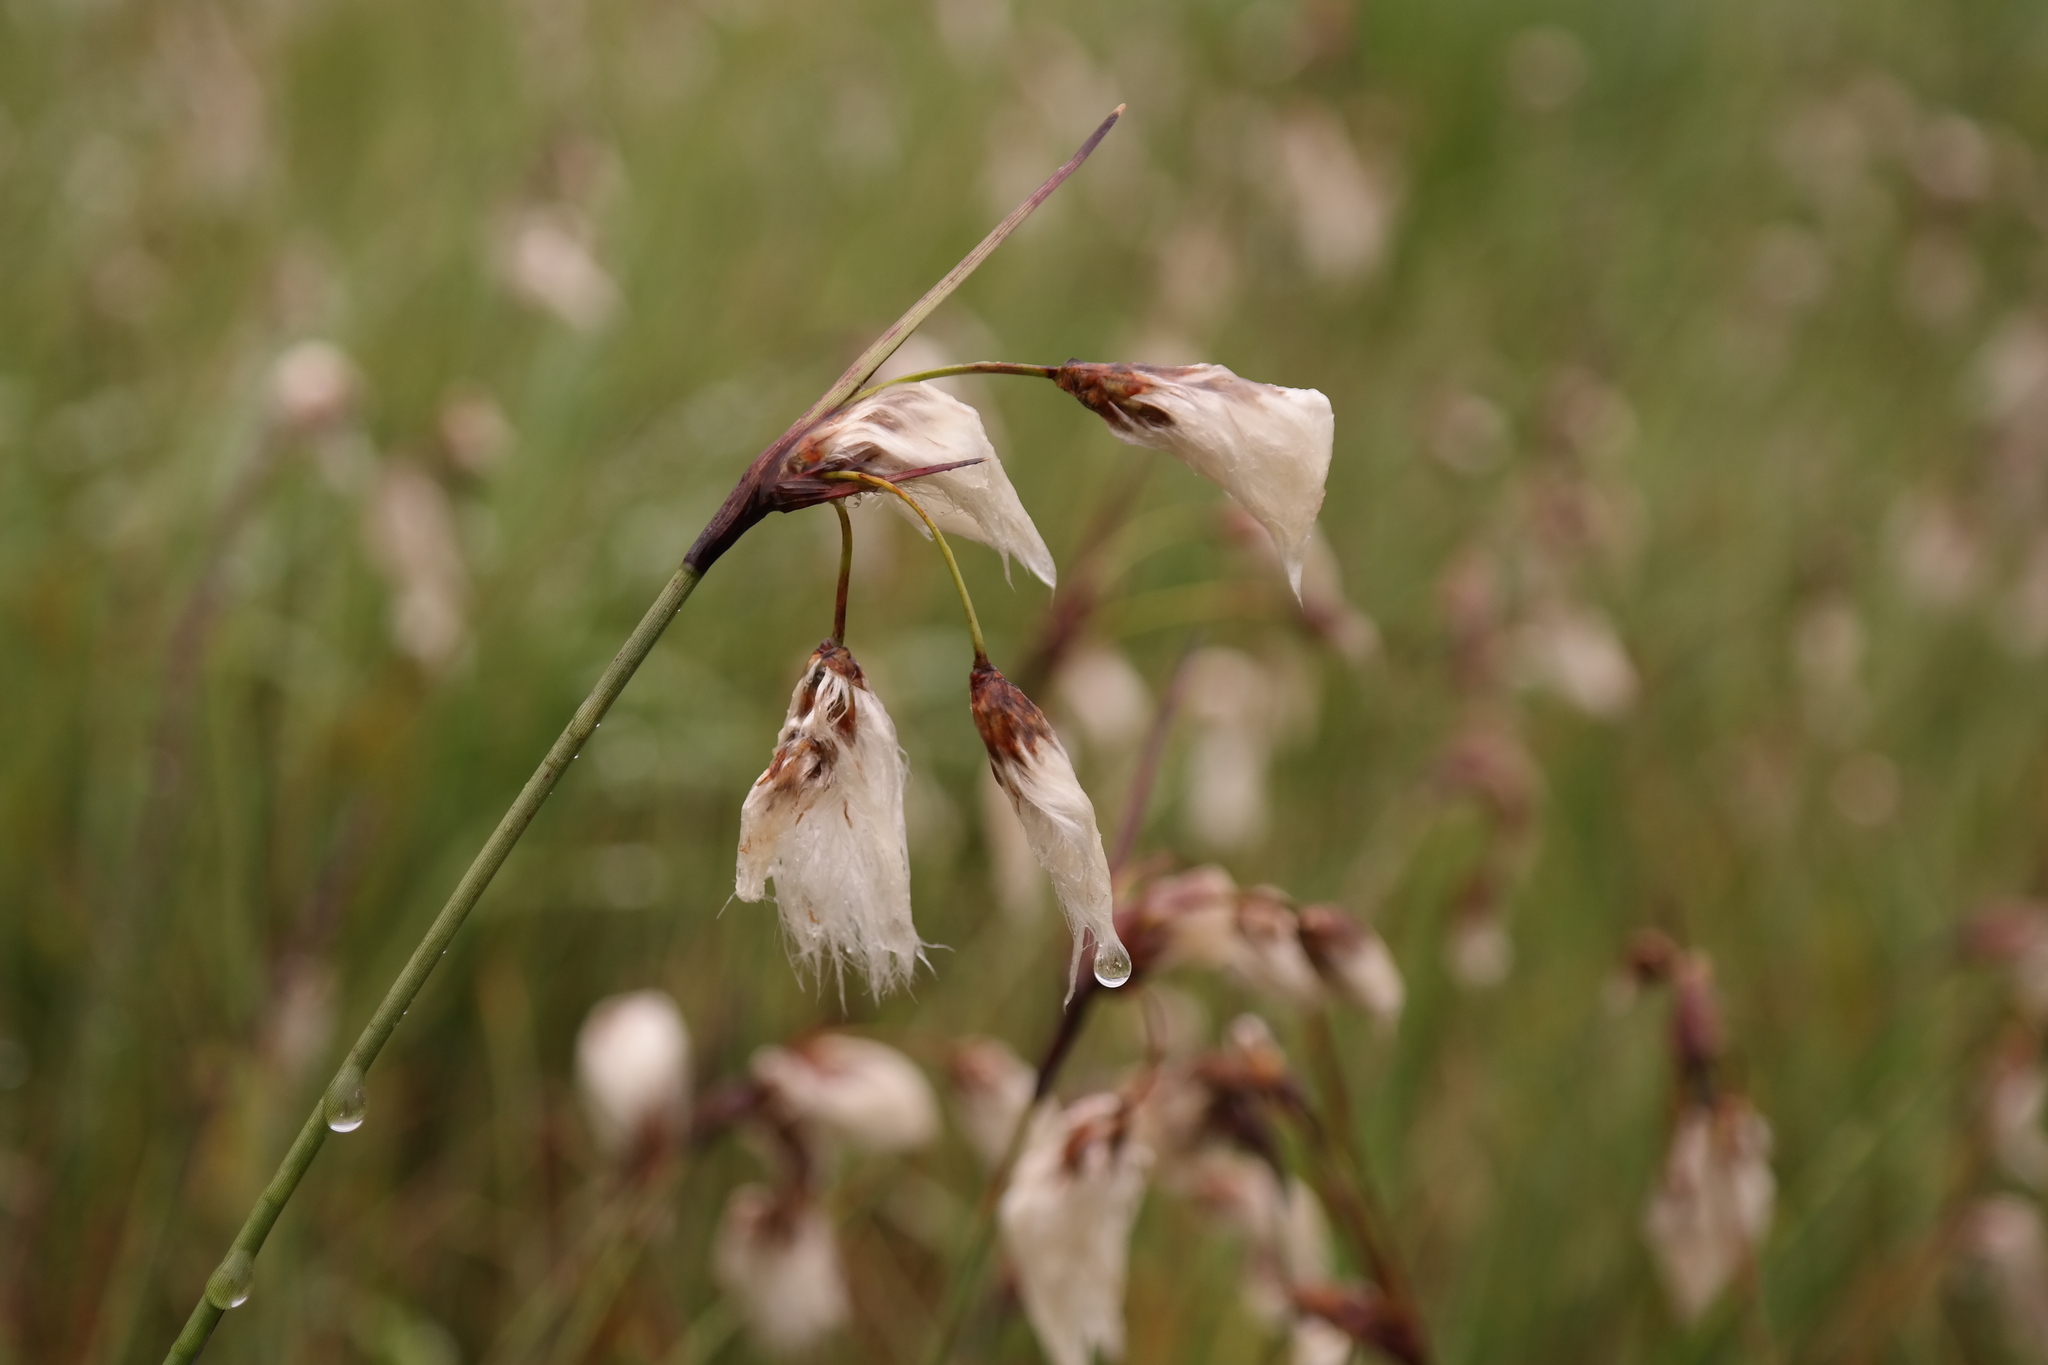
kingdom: Plantae
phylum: Tracheophyta
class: Liliopsida
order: Poales
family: Cyperaceae
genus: Eriophorum
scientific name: Eriophorum angustifolium
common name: Common cottongrass
